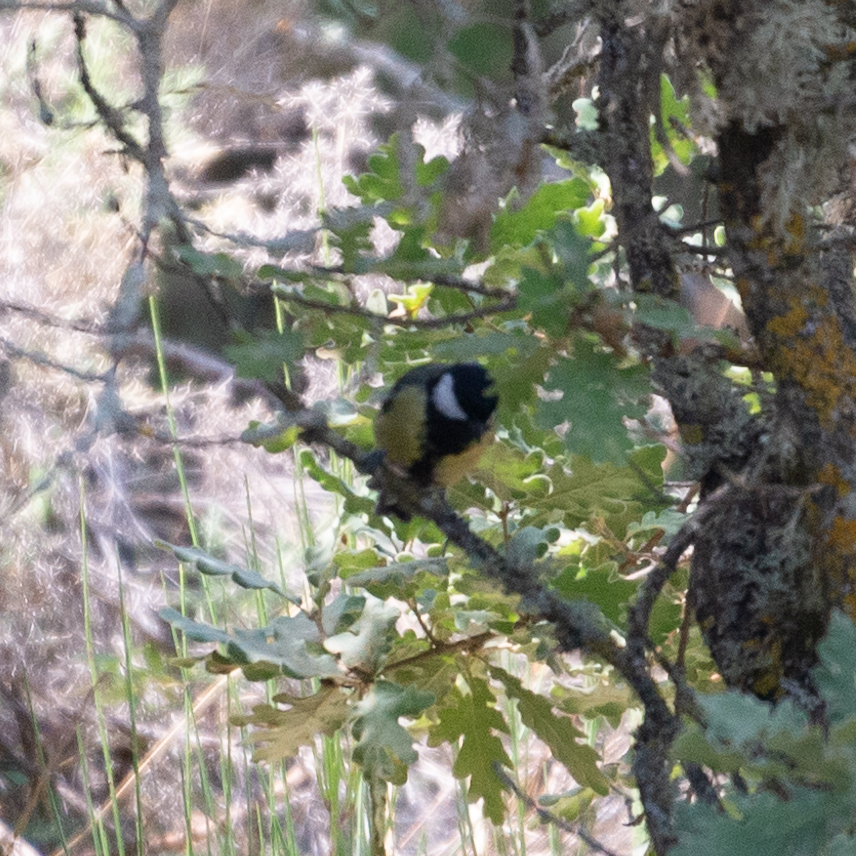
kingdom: Animalia
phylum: Chordata
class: Aves
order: Passeriformes
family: Paridae
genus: Parus
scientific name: Parus major
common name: Great tit
